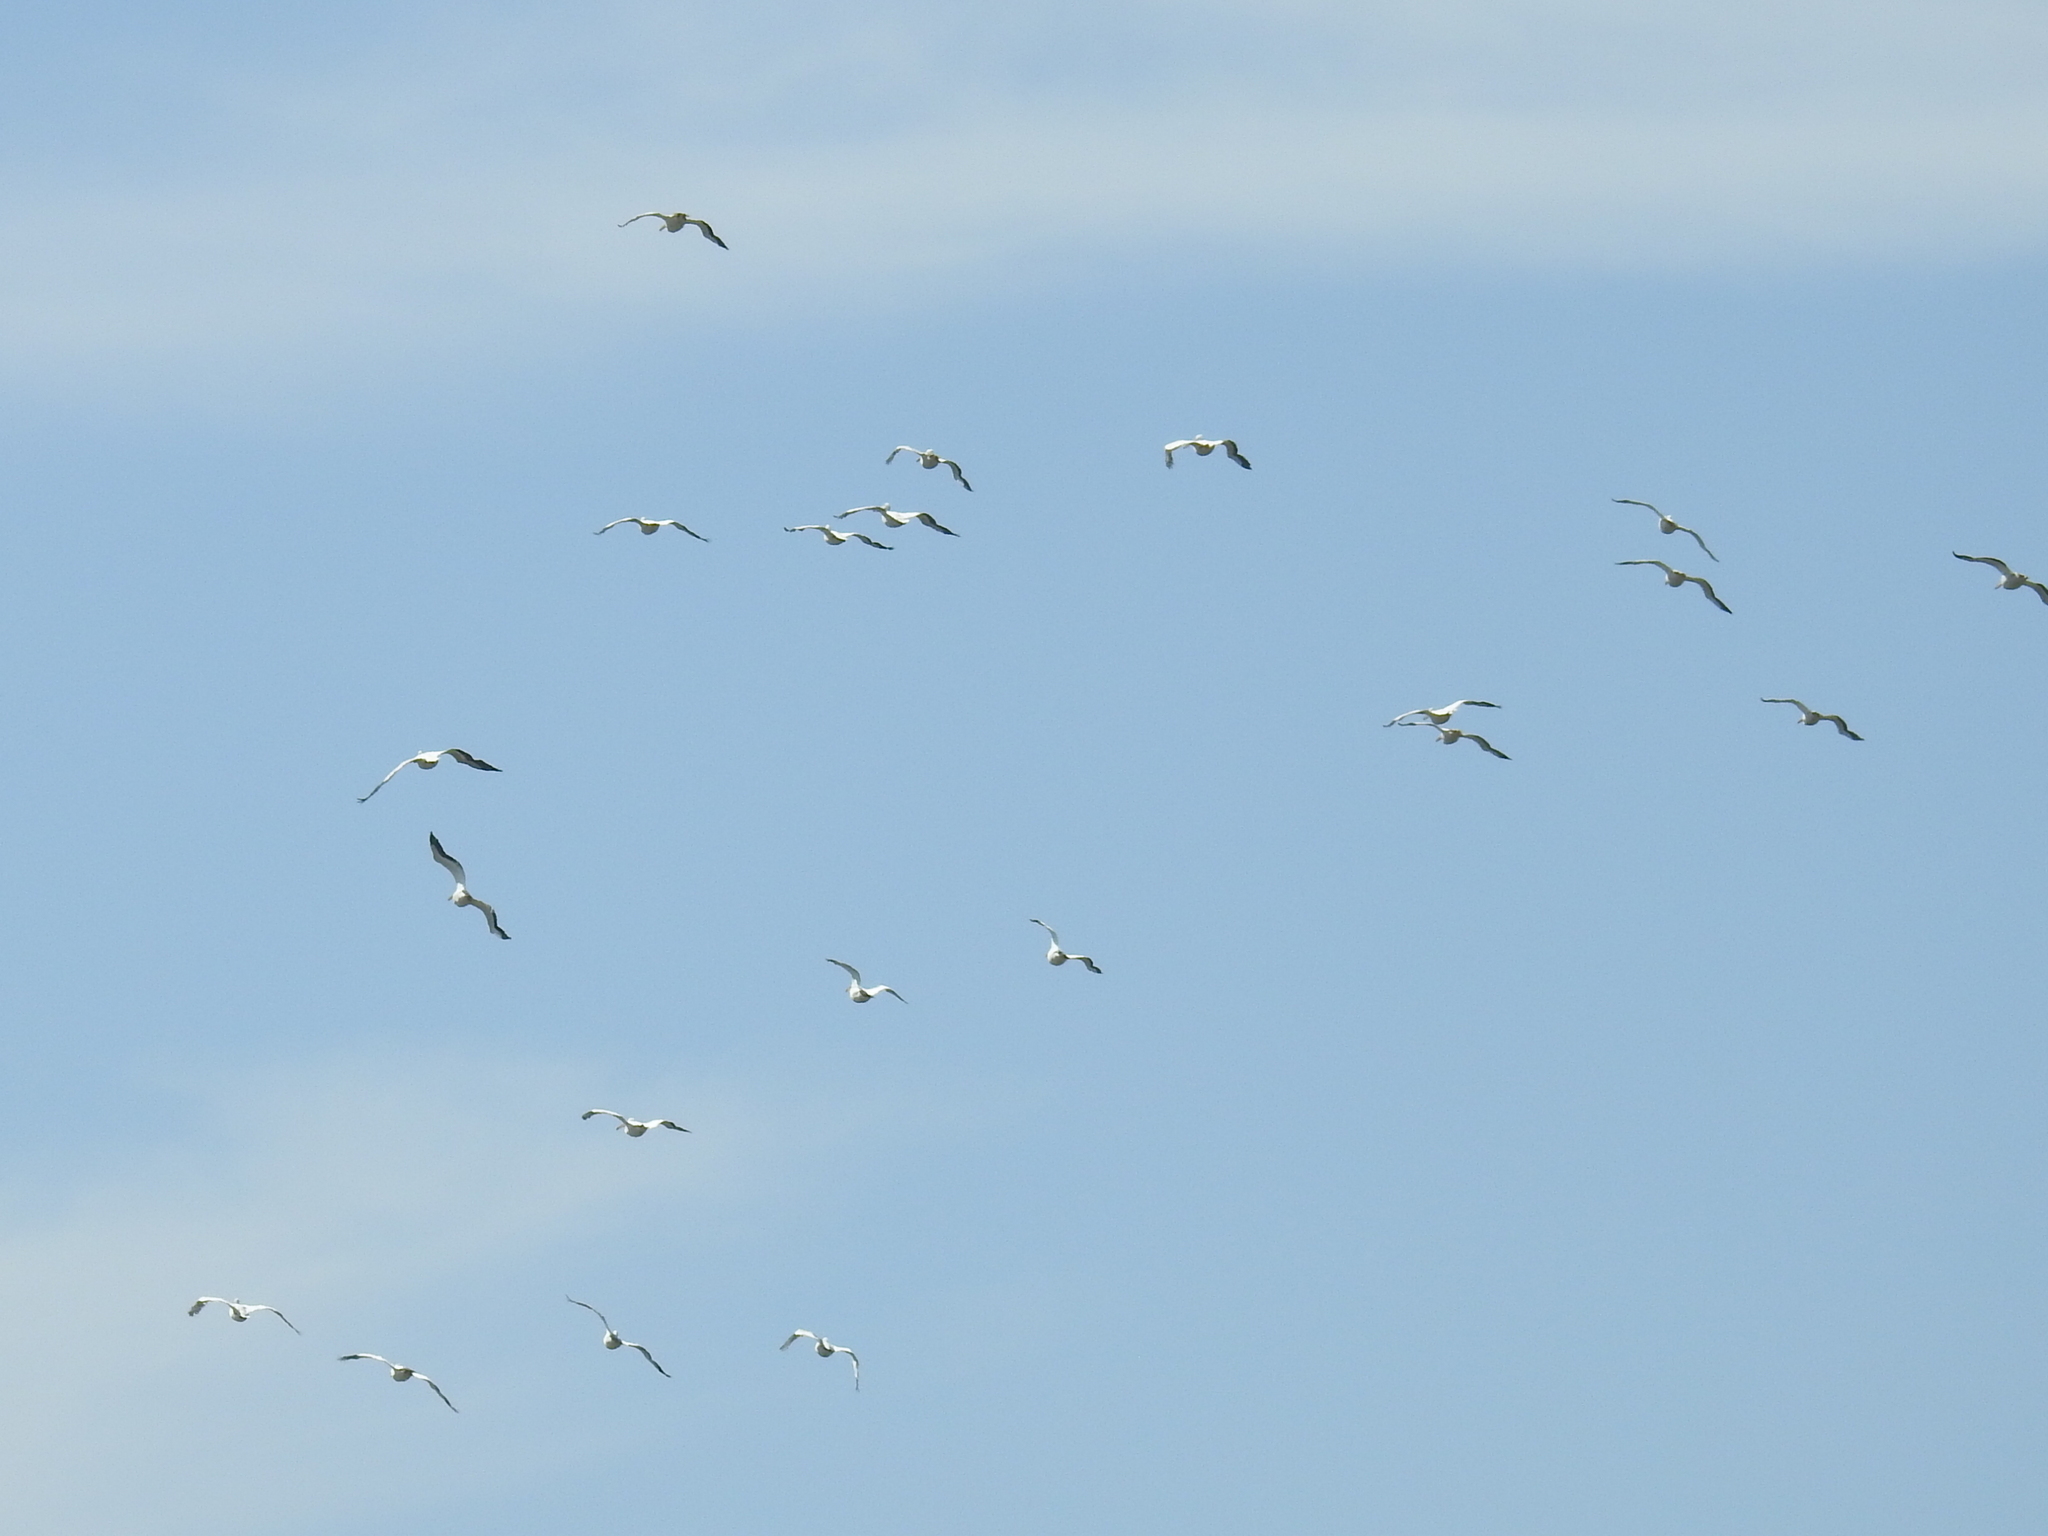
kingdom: Animalia
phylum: Chordata
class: Aves
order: Pelecaniformes
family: Pelecanidae
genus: Pelecanus
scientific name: Pelecanus erythrorhynchos
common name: American white pelican
